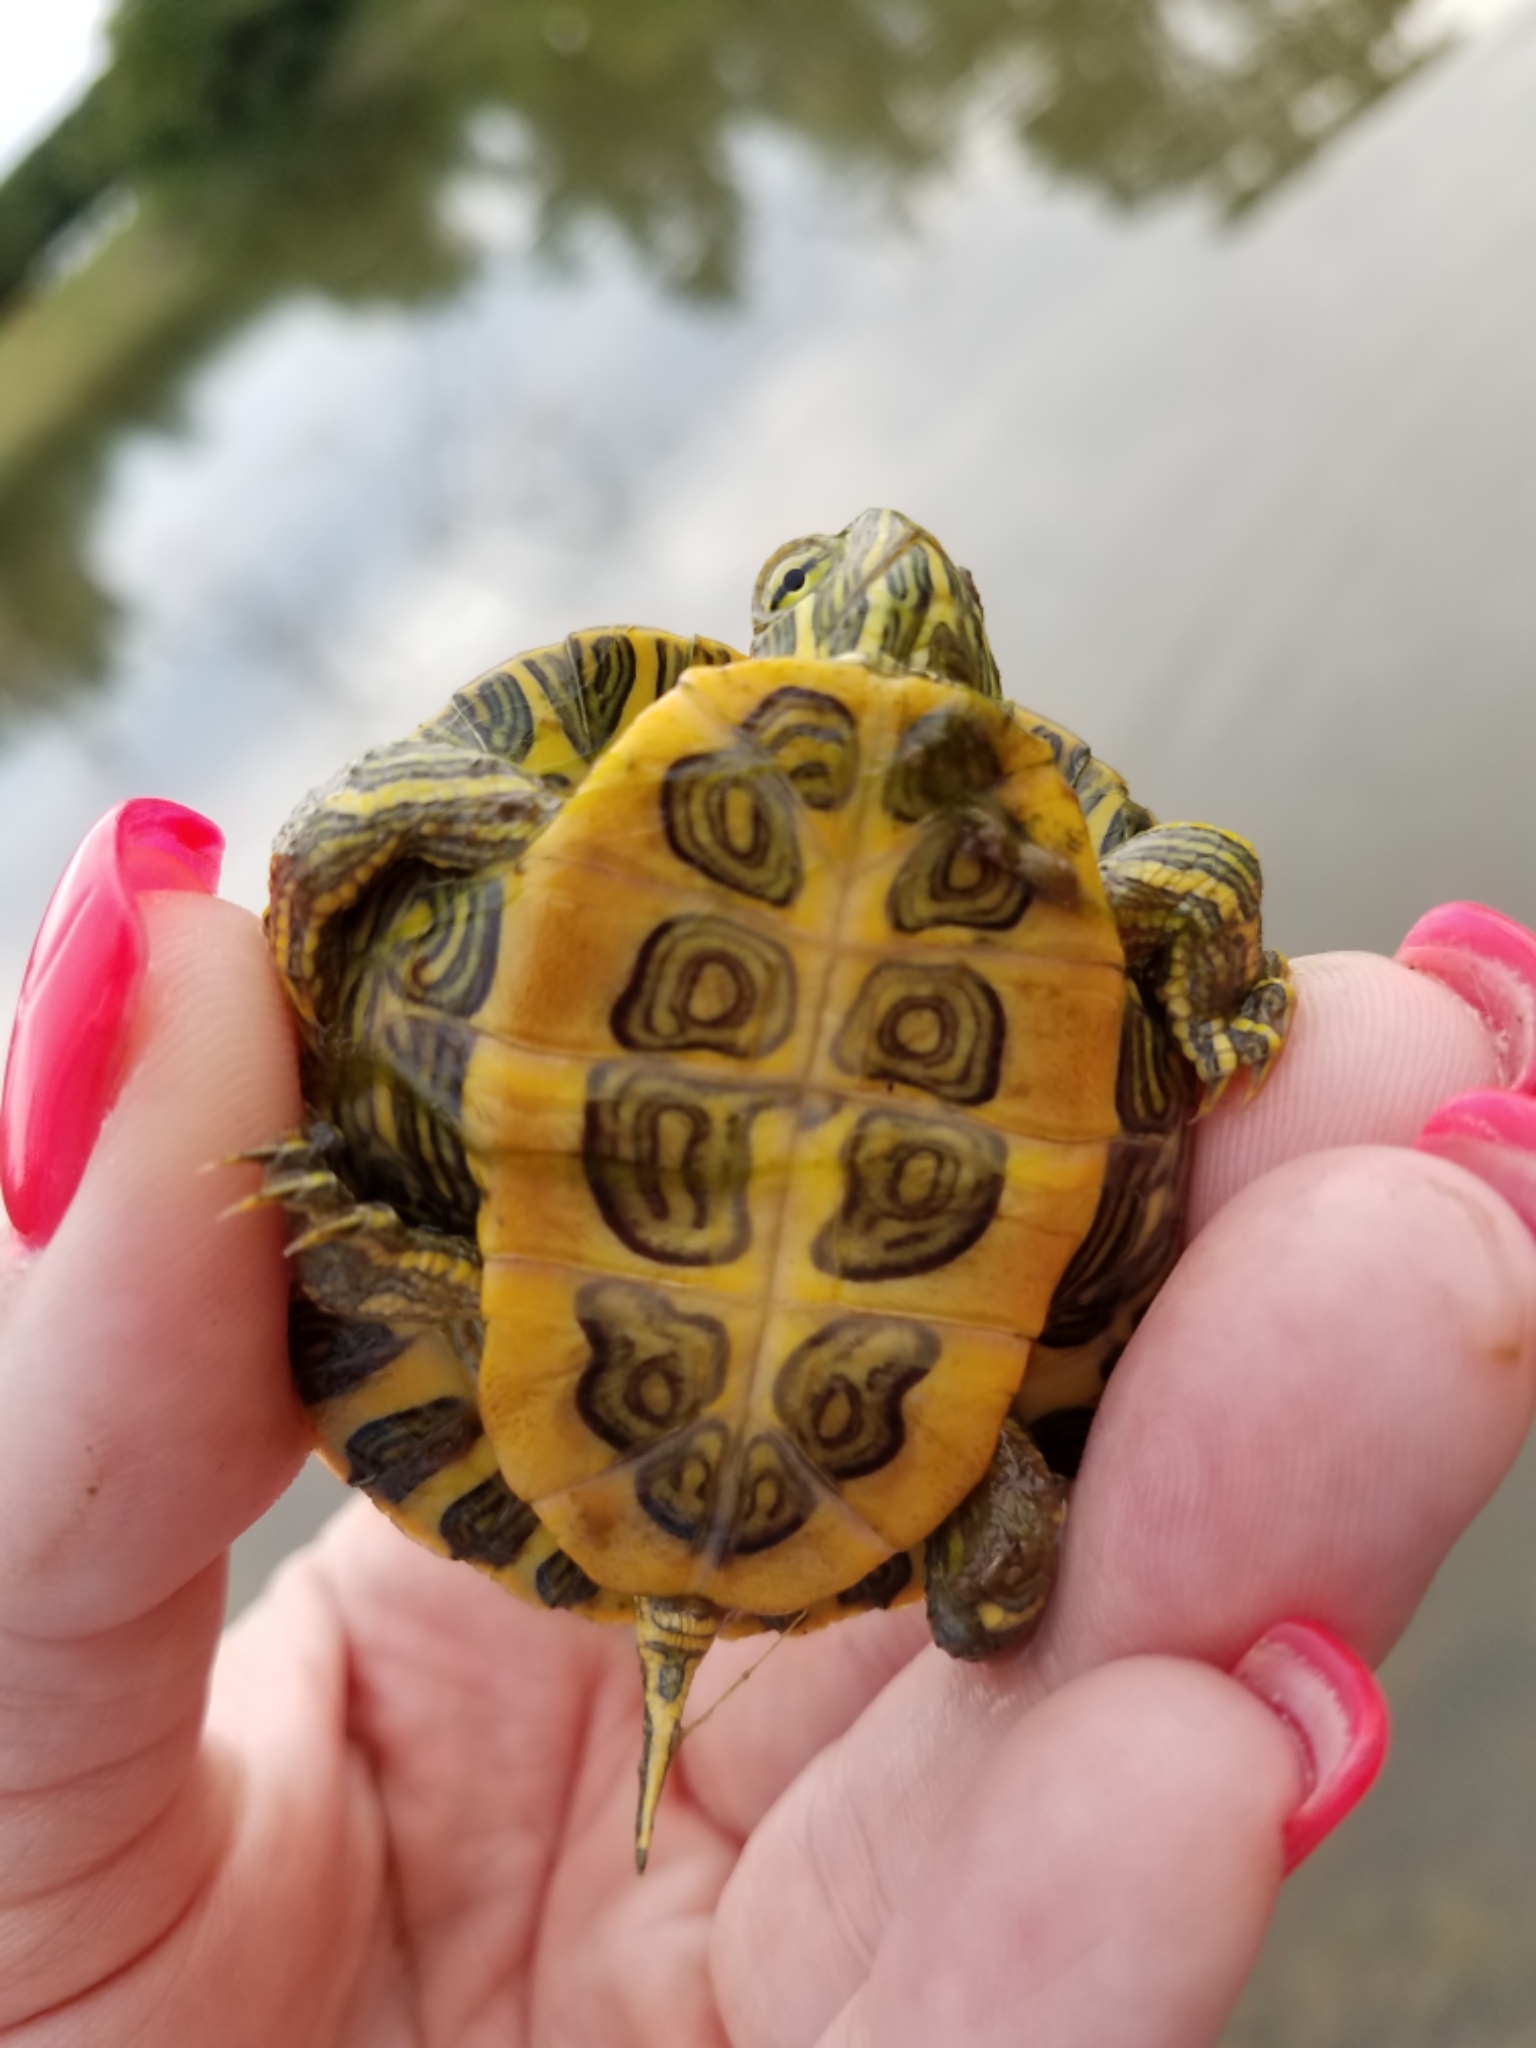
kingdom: Animalia
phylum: Chordata
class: Testudines
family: Emydidae
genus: Trachemys
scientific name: Trachemys scripta
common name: Slider
